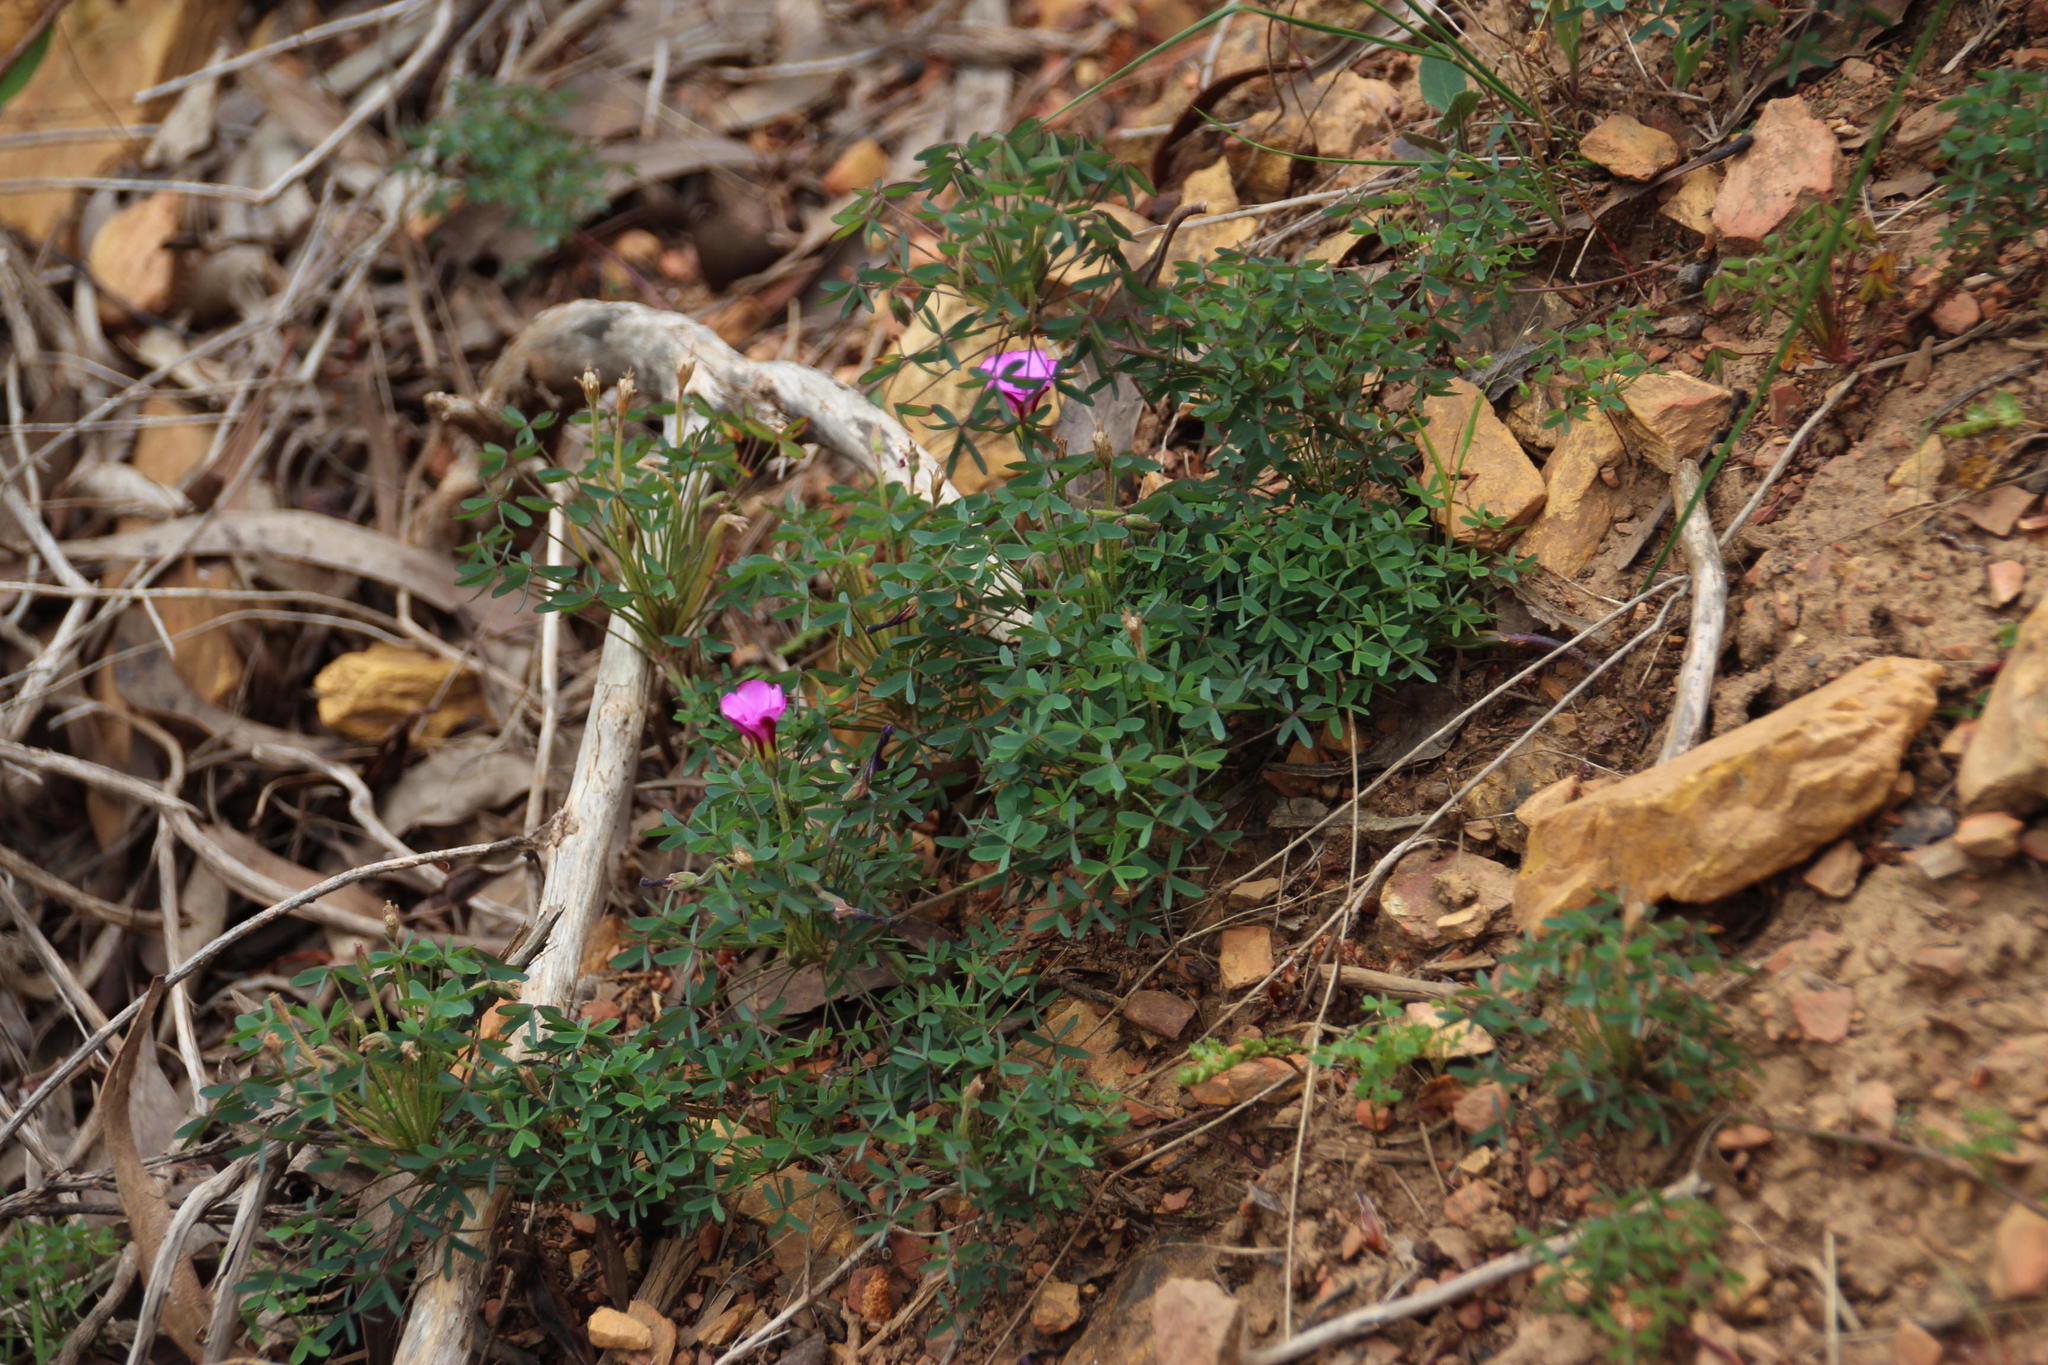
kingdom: Plantae
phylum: Tracheophyta
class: Magnoliopsida
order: Oxalidales
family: Oxalidaceae
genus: Oxalis
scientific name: Oxalis heterophylla
